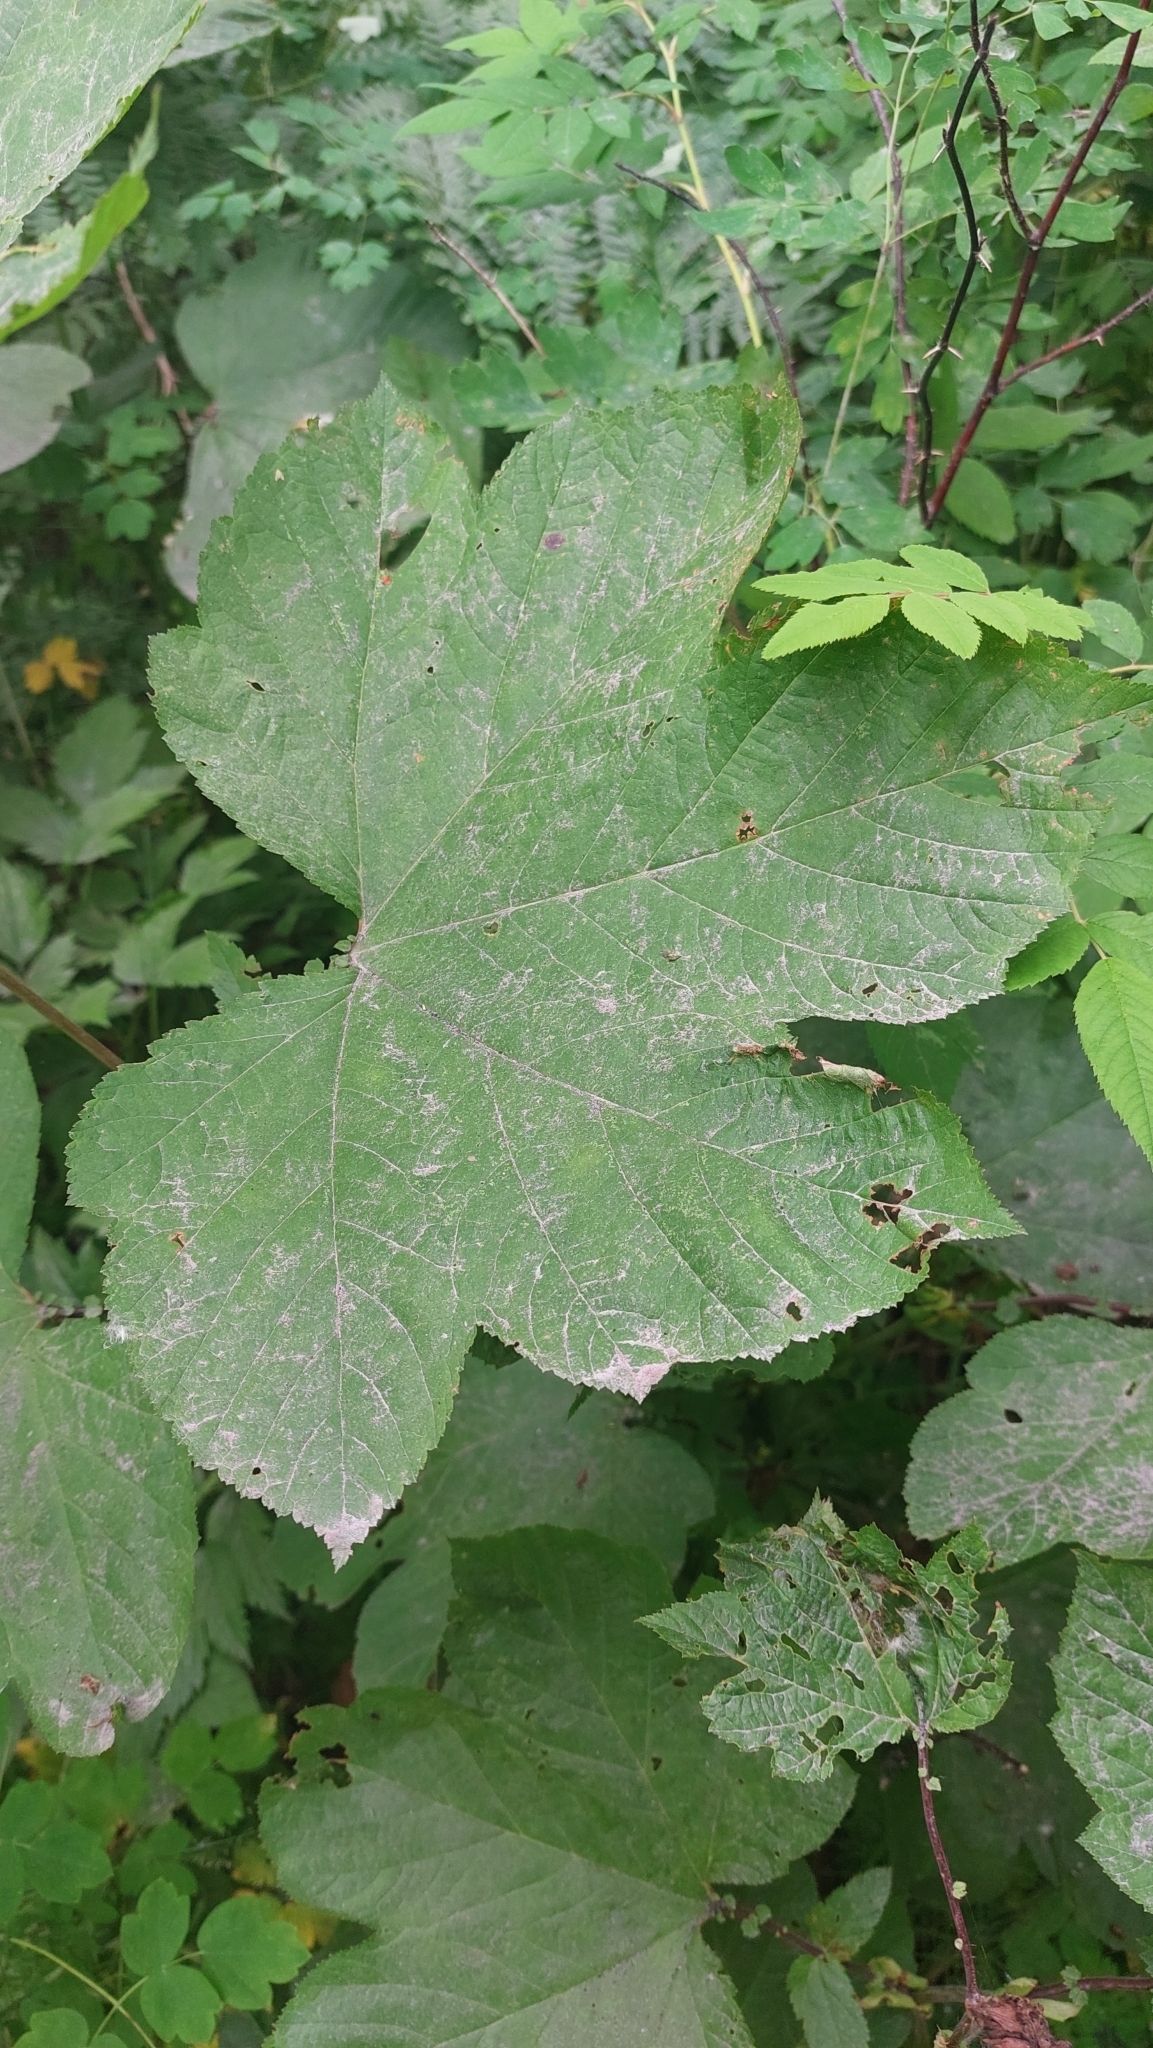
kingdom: Plantae
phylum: Tracheophyta
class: Magnoliopsida
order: Rosales
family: Rosaceae
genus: Filipendula
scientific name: Filipendula camtschatica
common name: Giant meadowsweet
